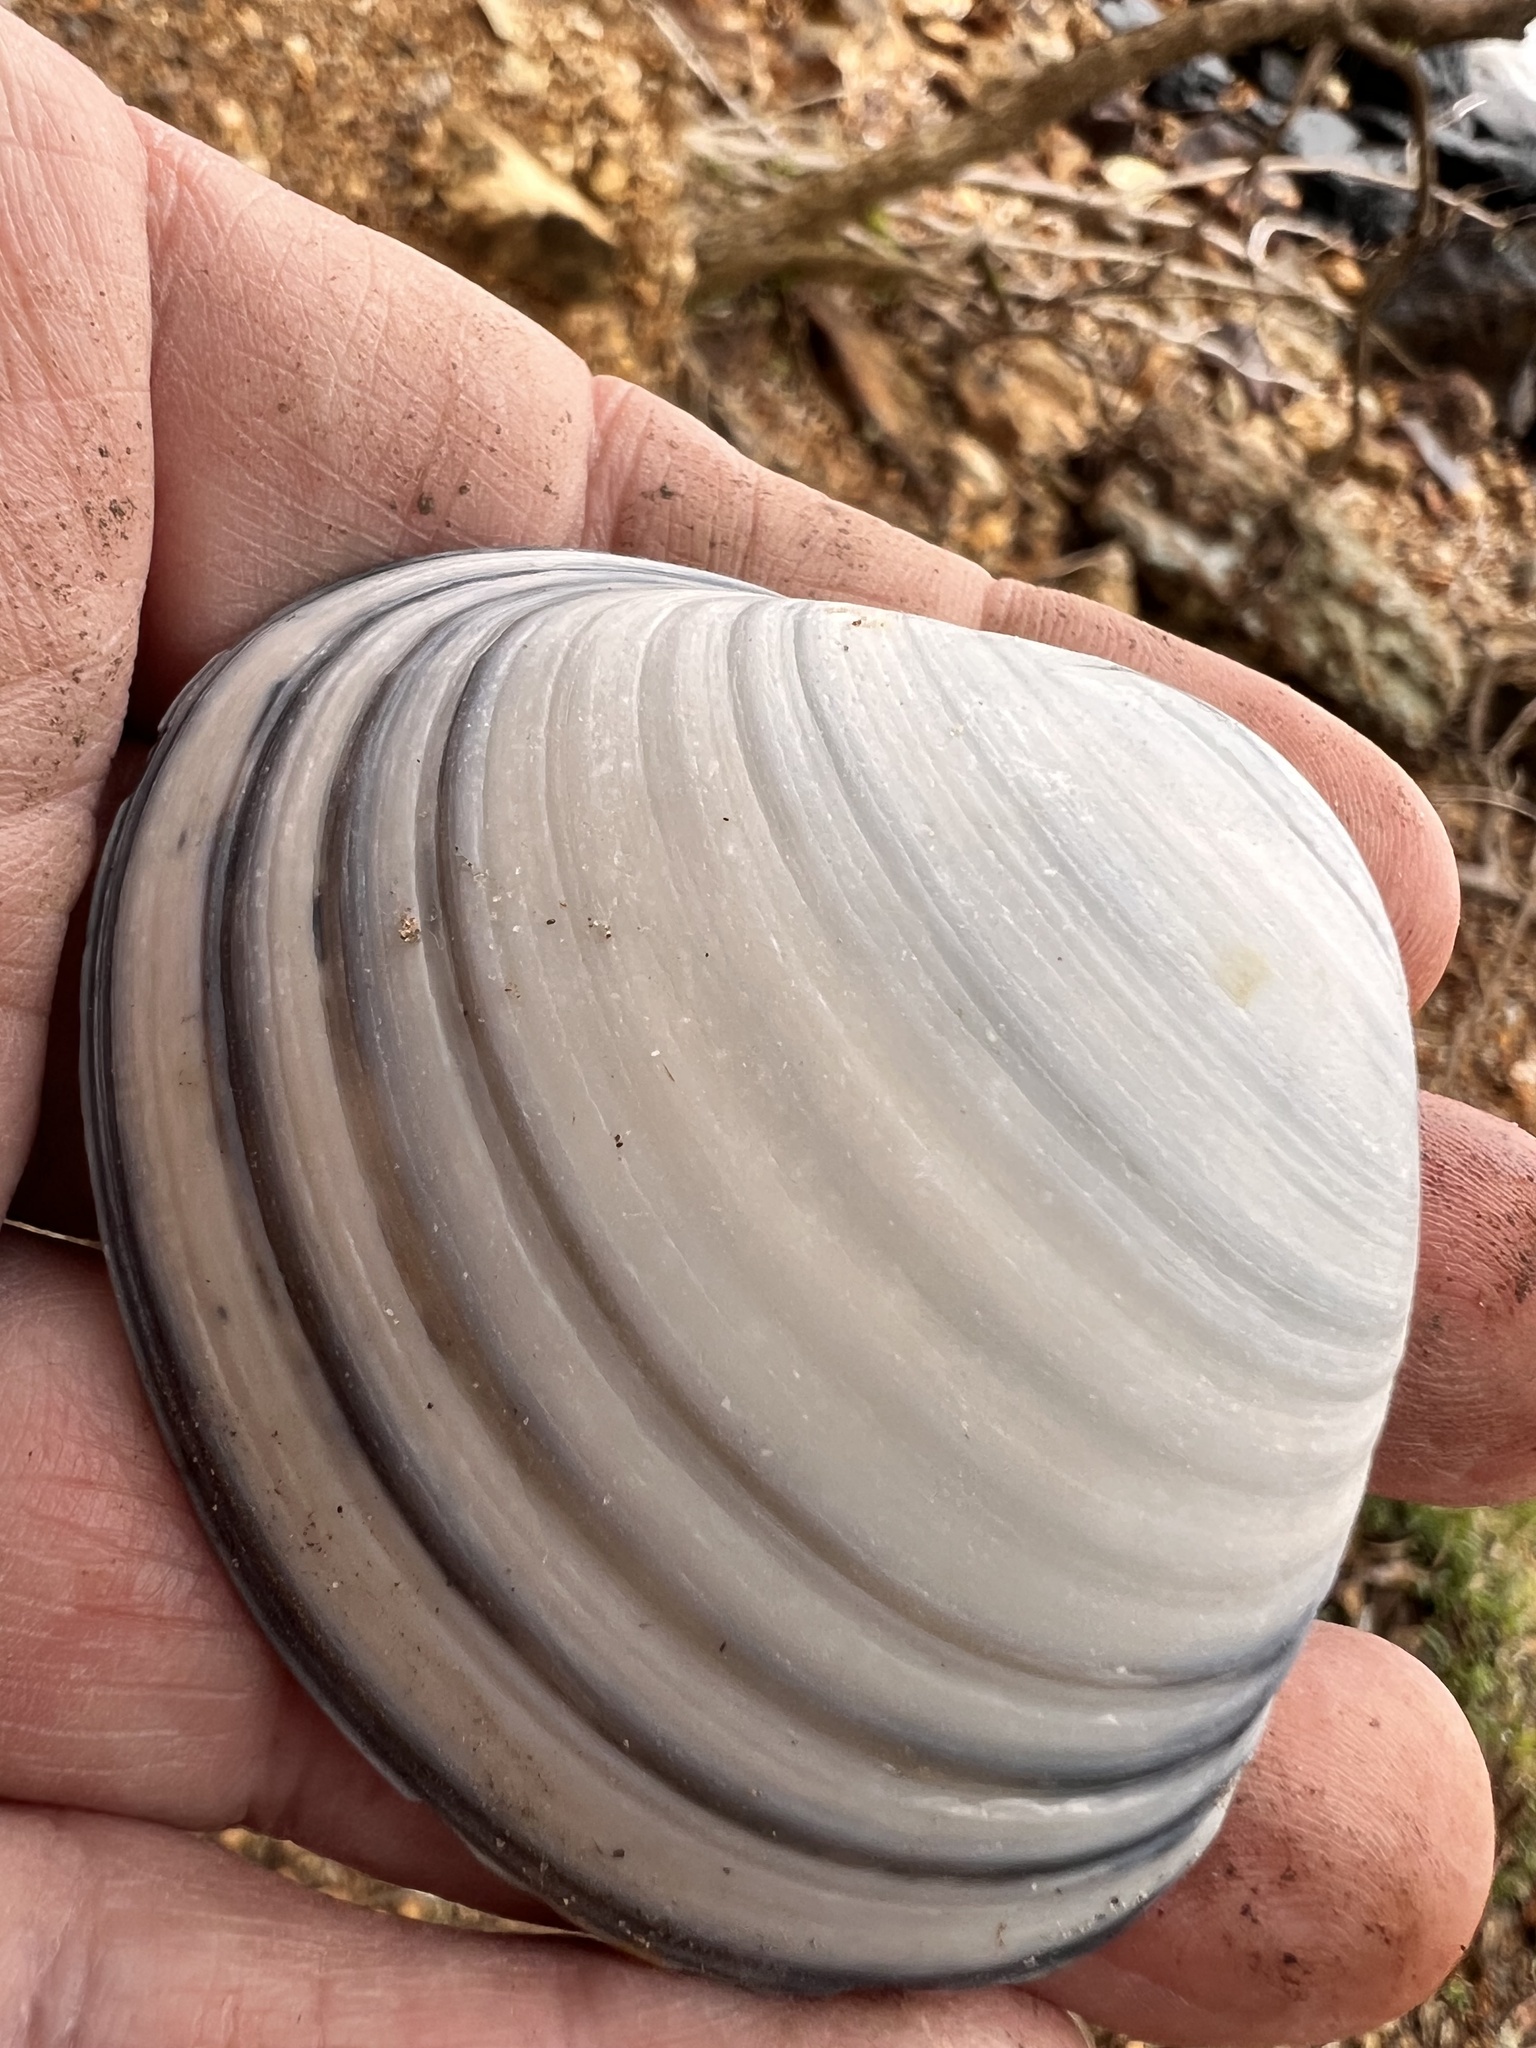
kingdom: Animalia
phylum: Mollusca
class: Bivalvia
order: Venerida
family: Mactridae
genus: Spisula
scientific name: Spisula murchisoni
